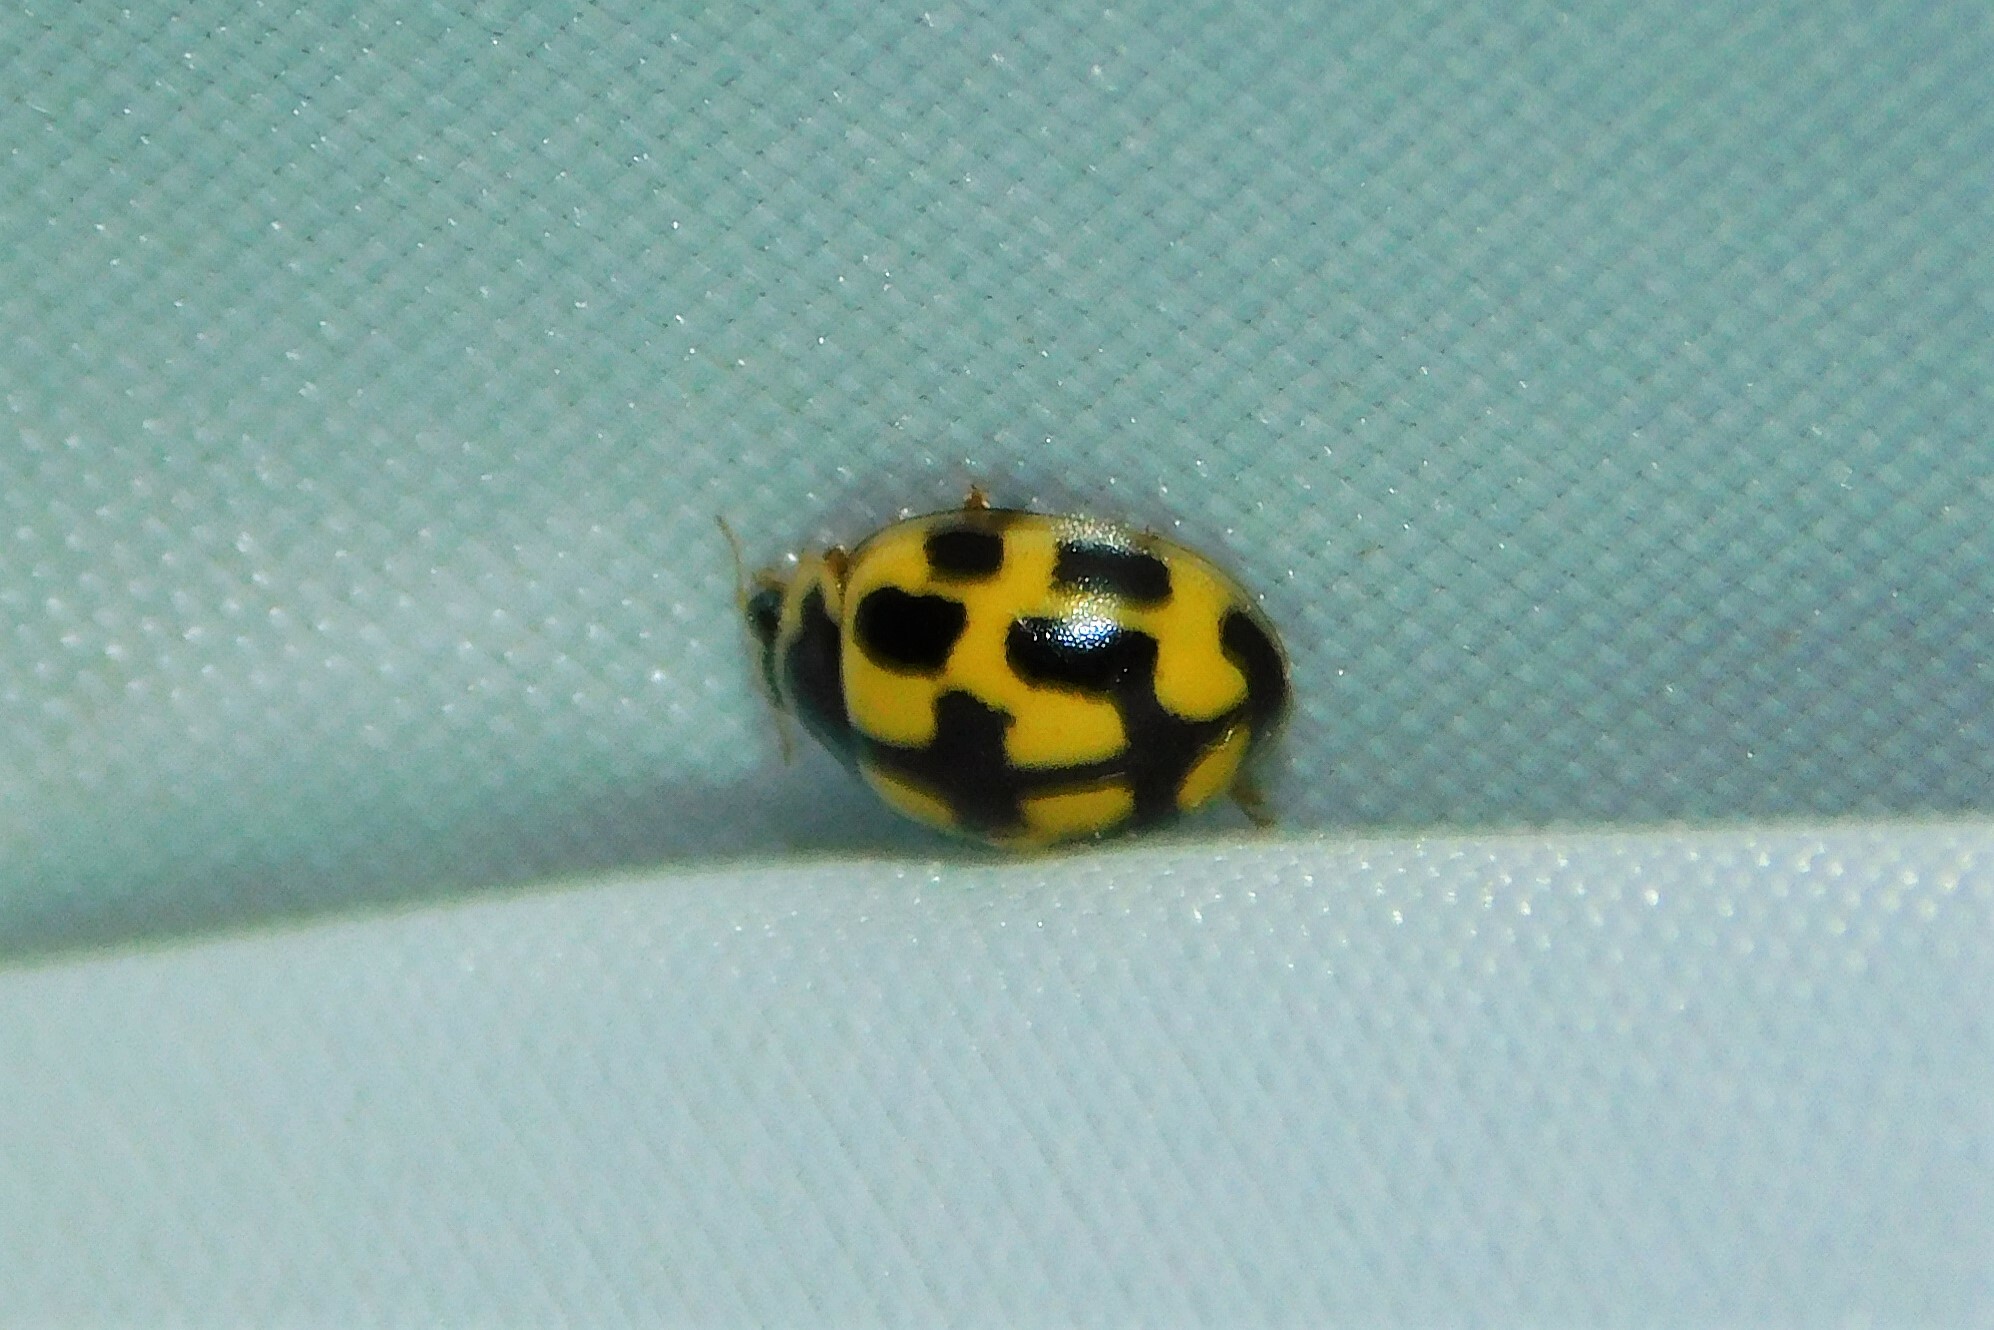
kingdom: Animalia
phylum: Arthropoda
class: Insecta
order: Coleoptera
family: Coccinellidae
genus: Propylaea
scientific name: Propylaea quatuordecimpunctata
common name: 14-spotted ladybird beetle
